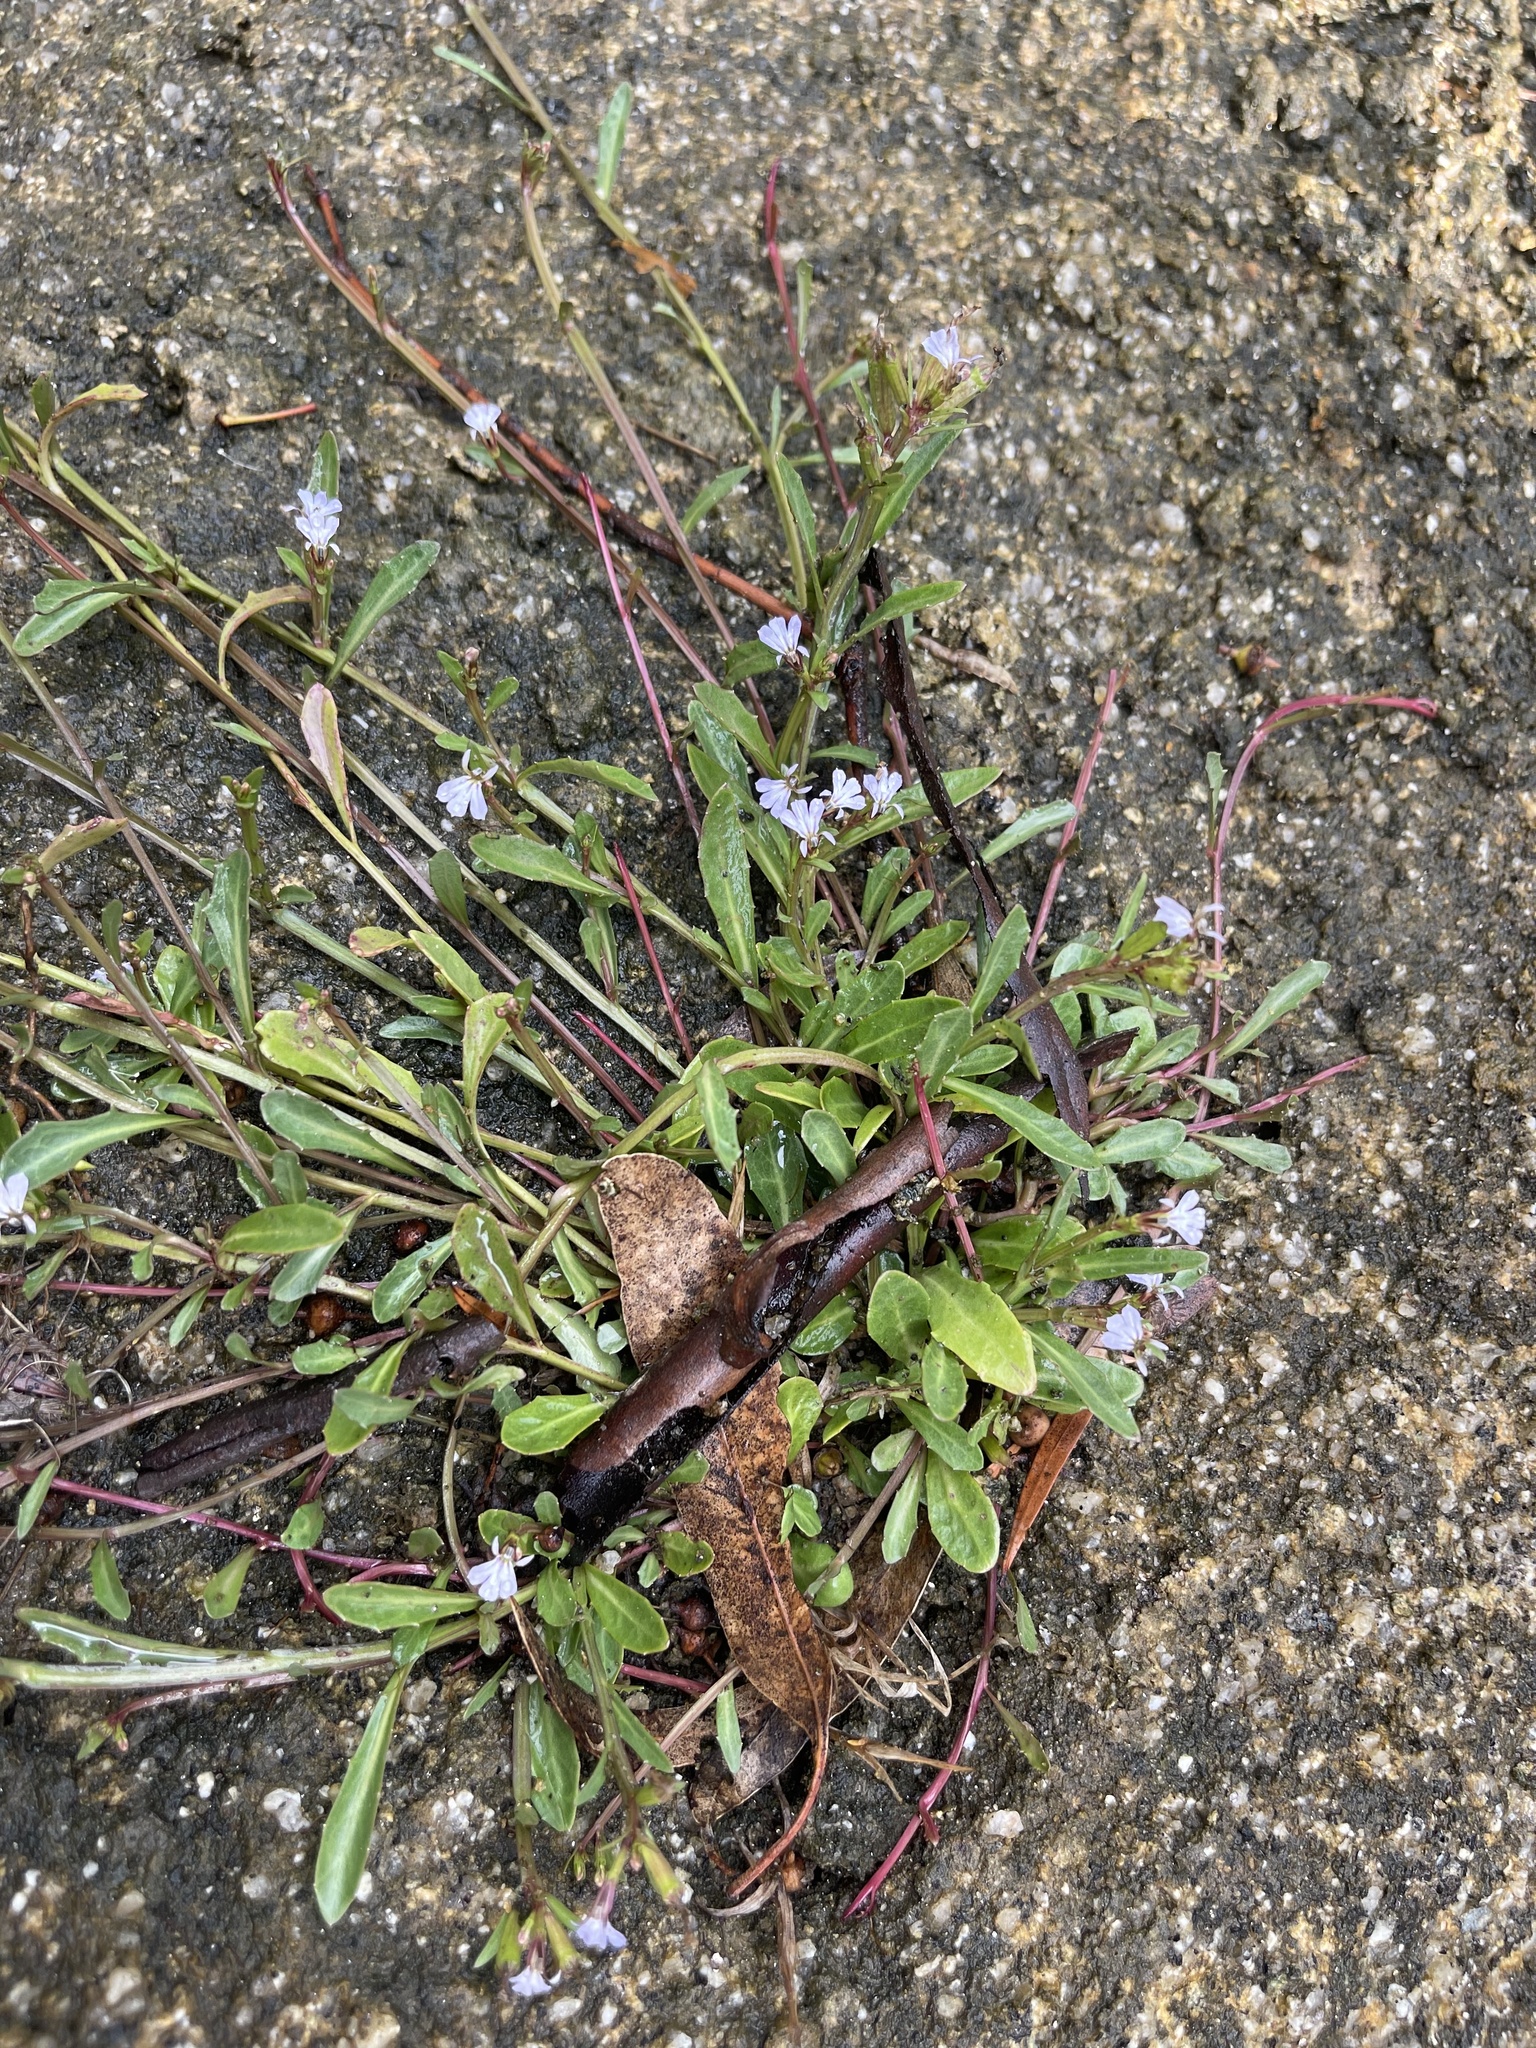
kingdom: Plantae
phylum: Tracheophyta
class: Magnoliopsida
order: Asterales
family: Campanulaceae
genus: Lobelia
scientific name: Lobelia anceps
